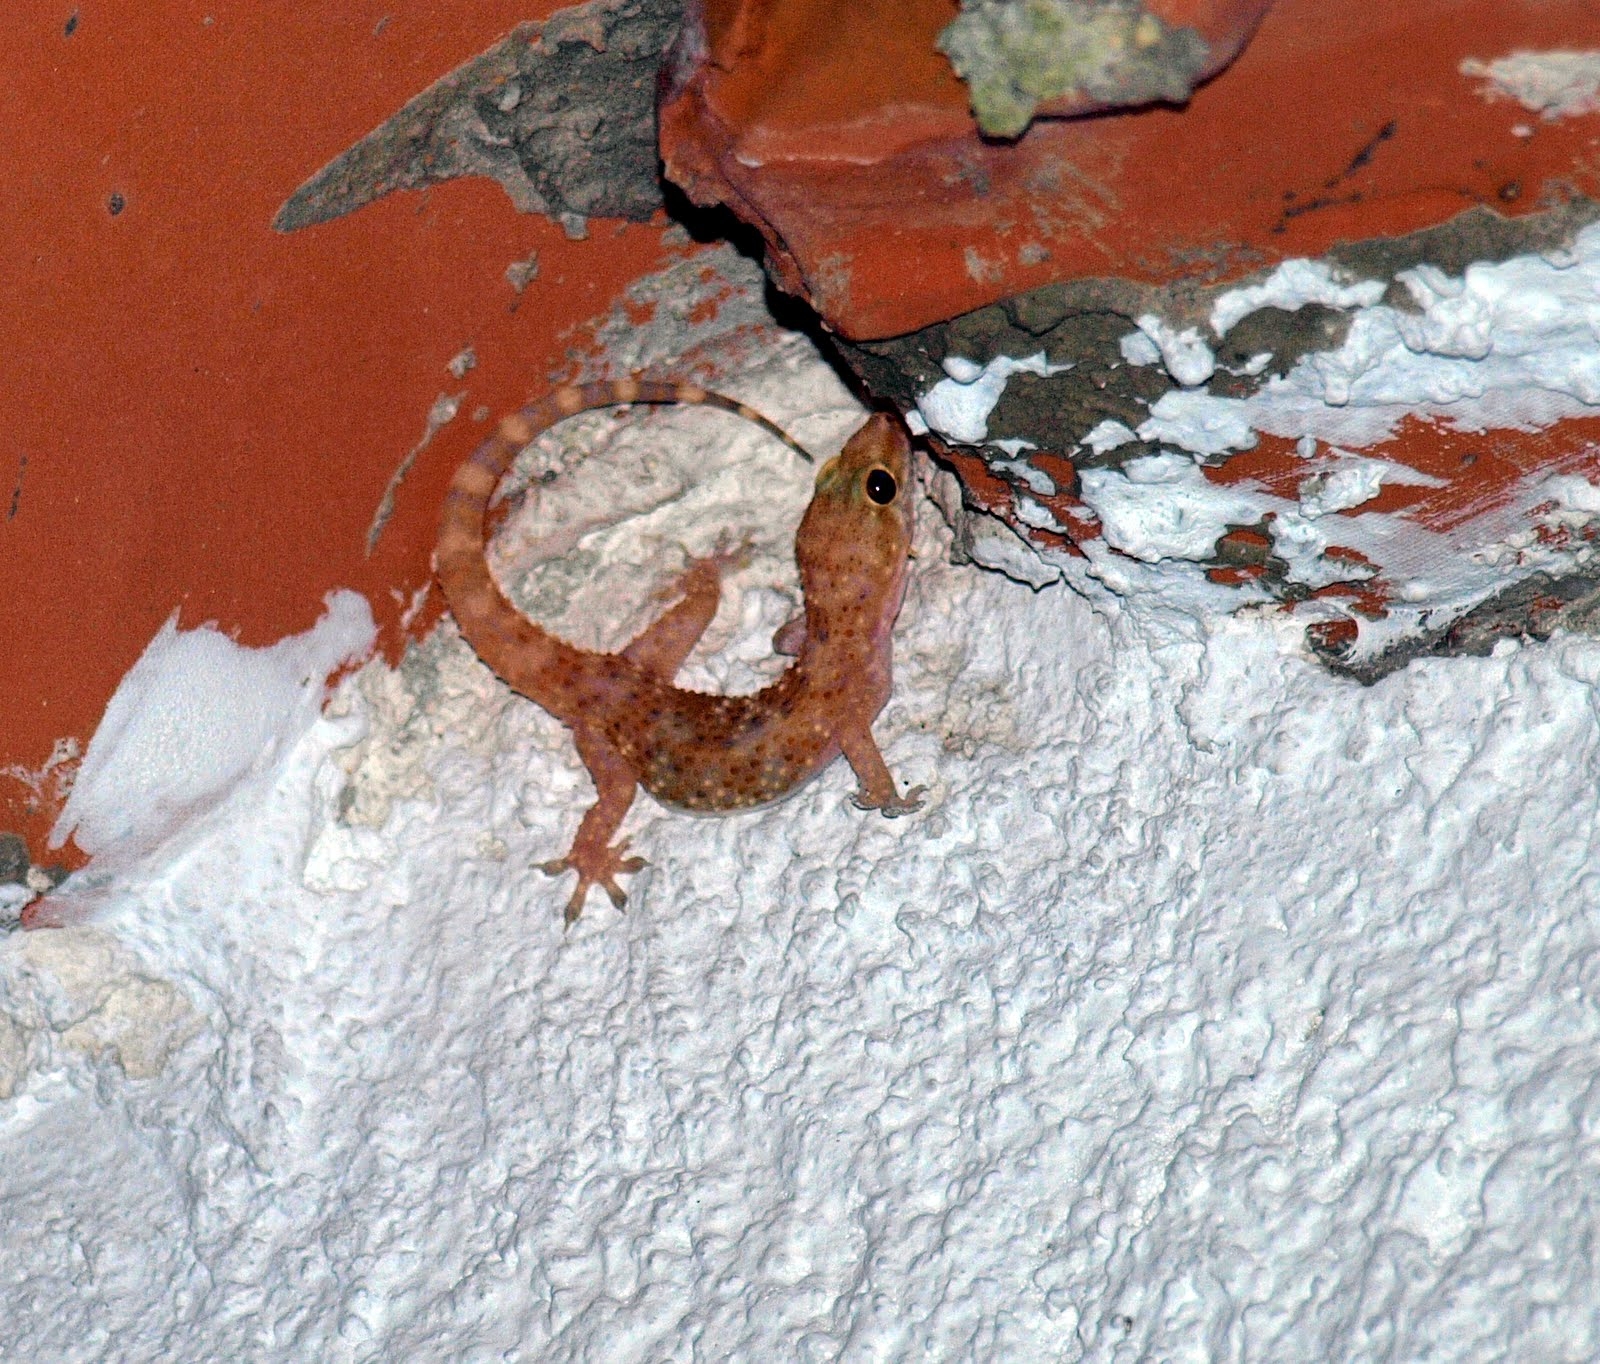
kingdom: Animalia
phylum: Chordata
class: Squamata
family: Gekkonidae
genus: Hemidactylus
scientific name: Hemidactylus turcicus
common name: Turkish gecko
